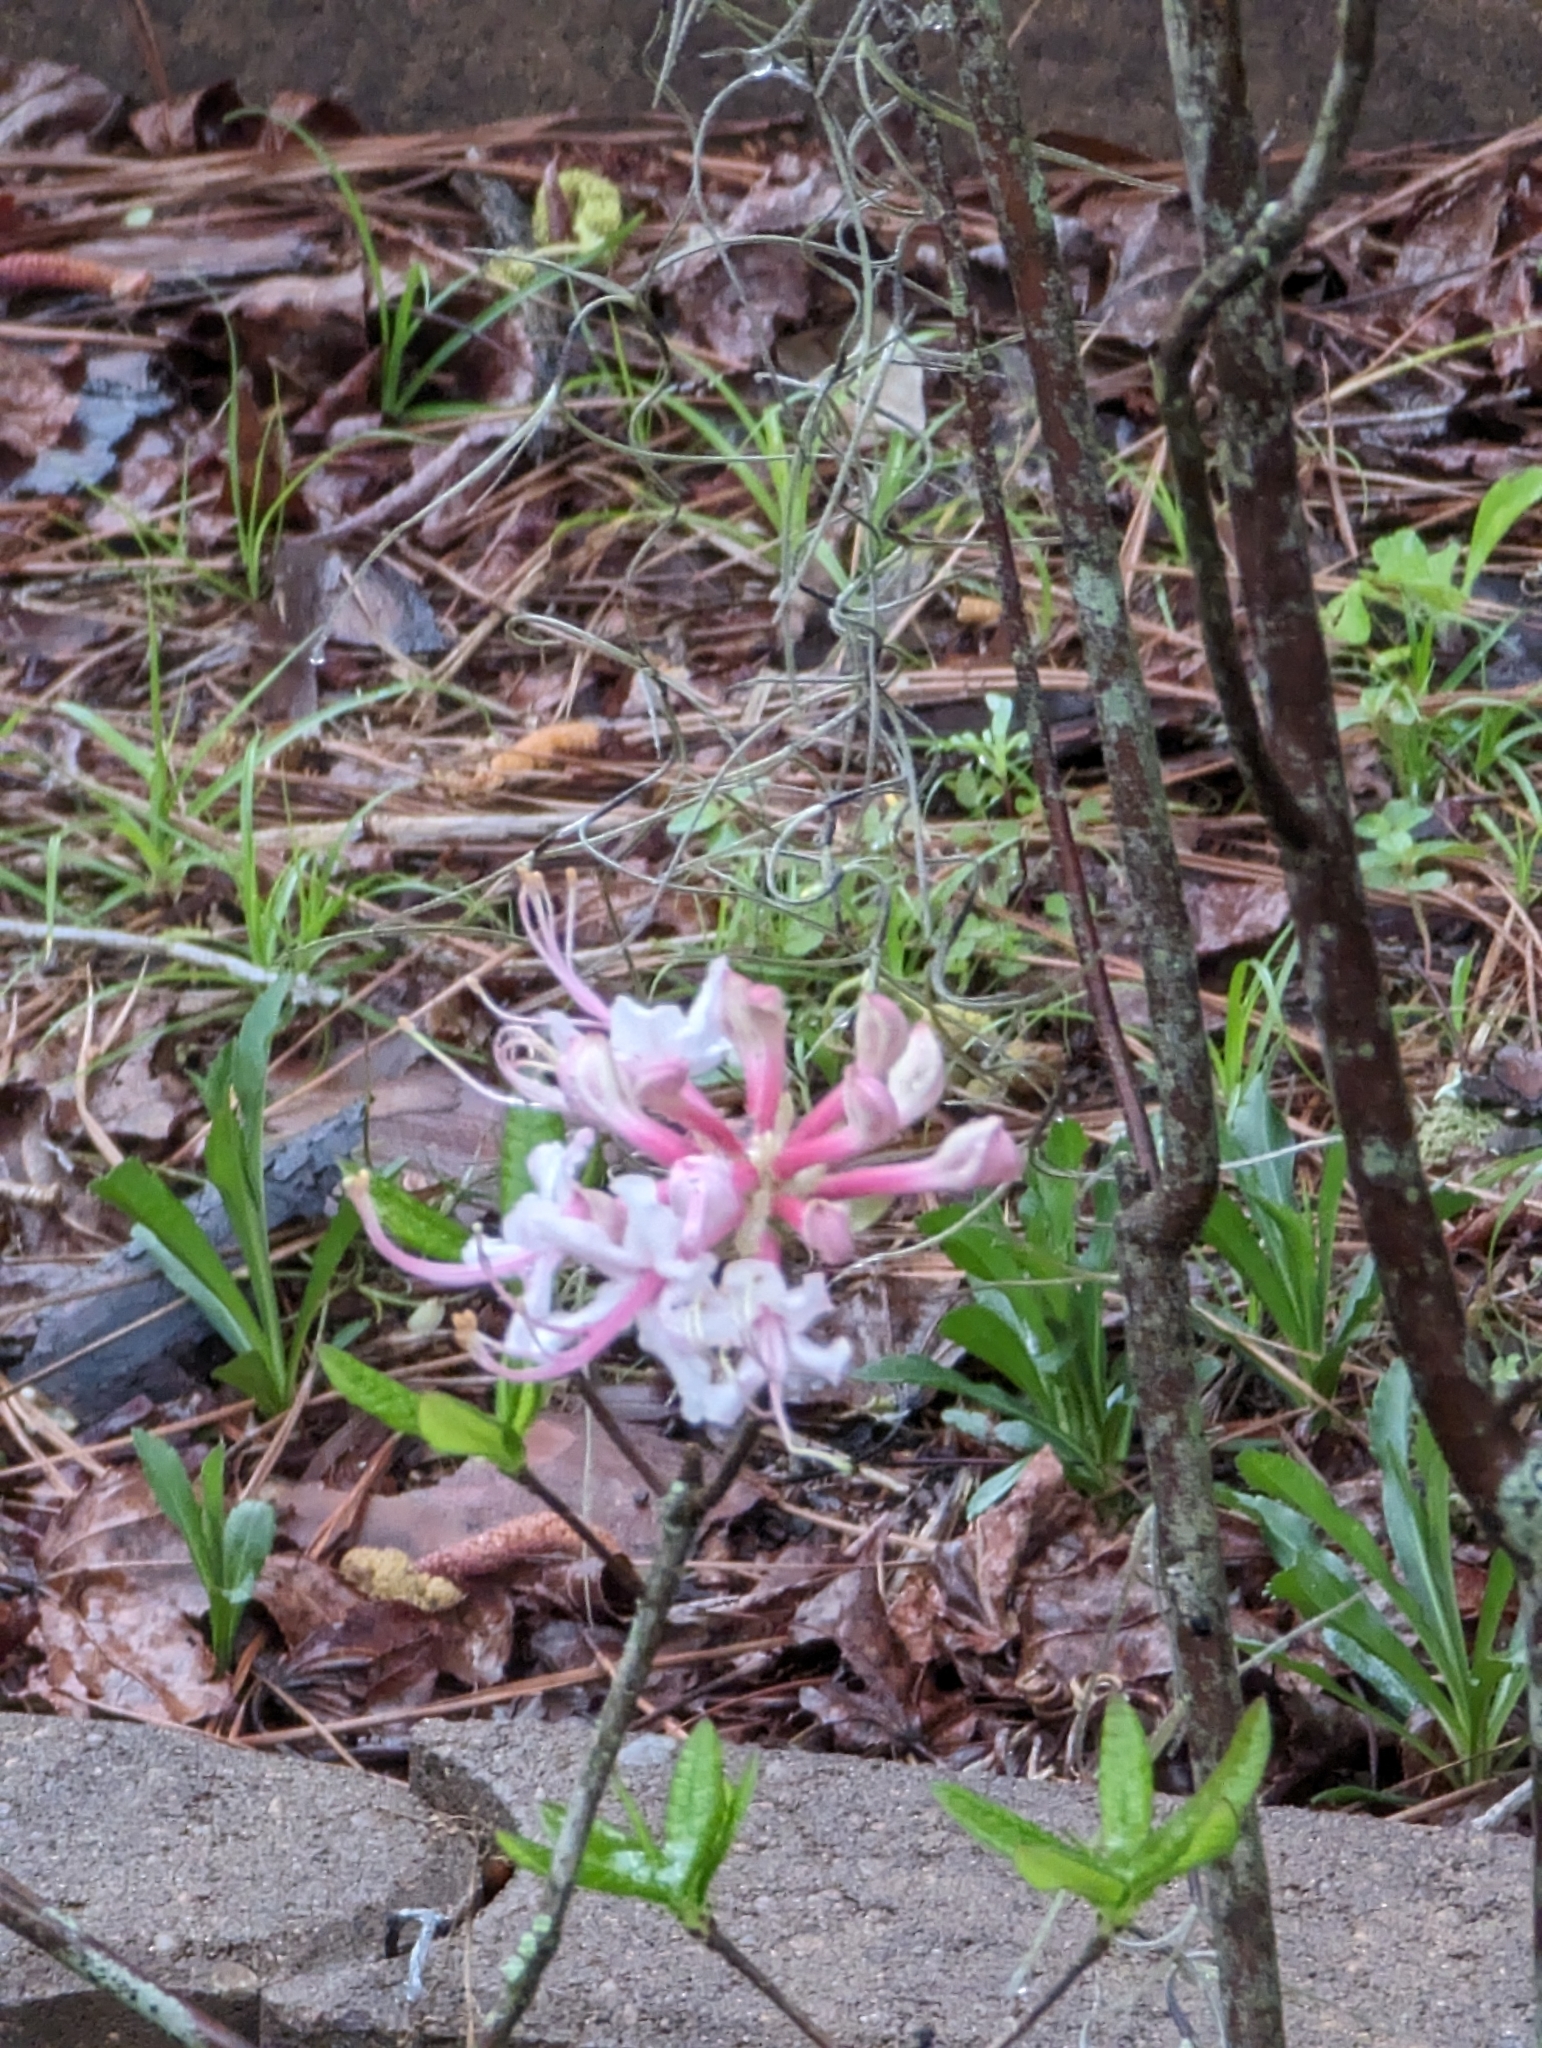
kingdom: Plantae
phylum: Tracheophyta
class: Magnoliopsida
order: Ericales
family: Ericaceae
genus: Rhododendron
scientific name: Rhododendron canescens
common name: Mountain azalea
